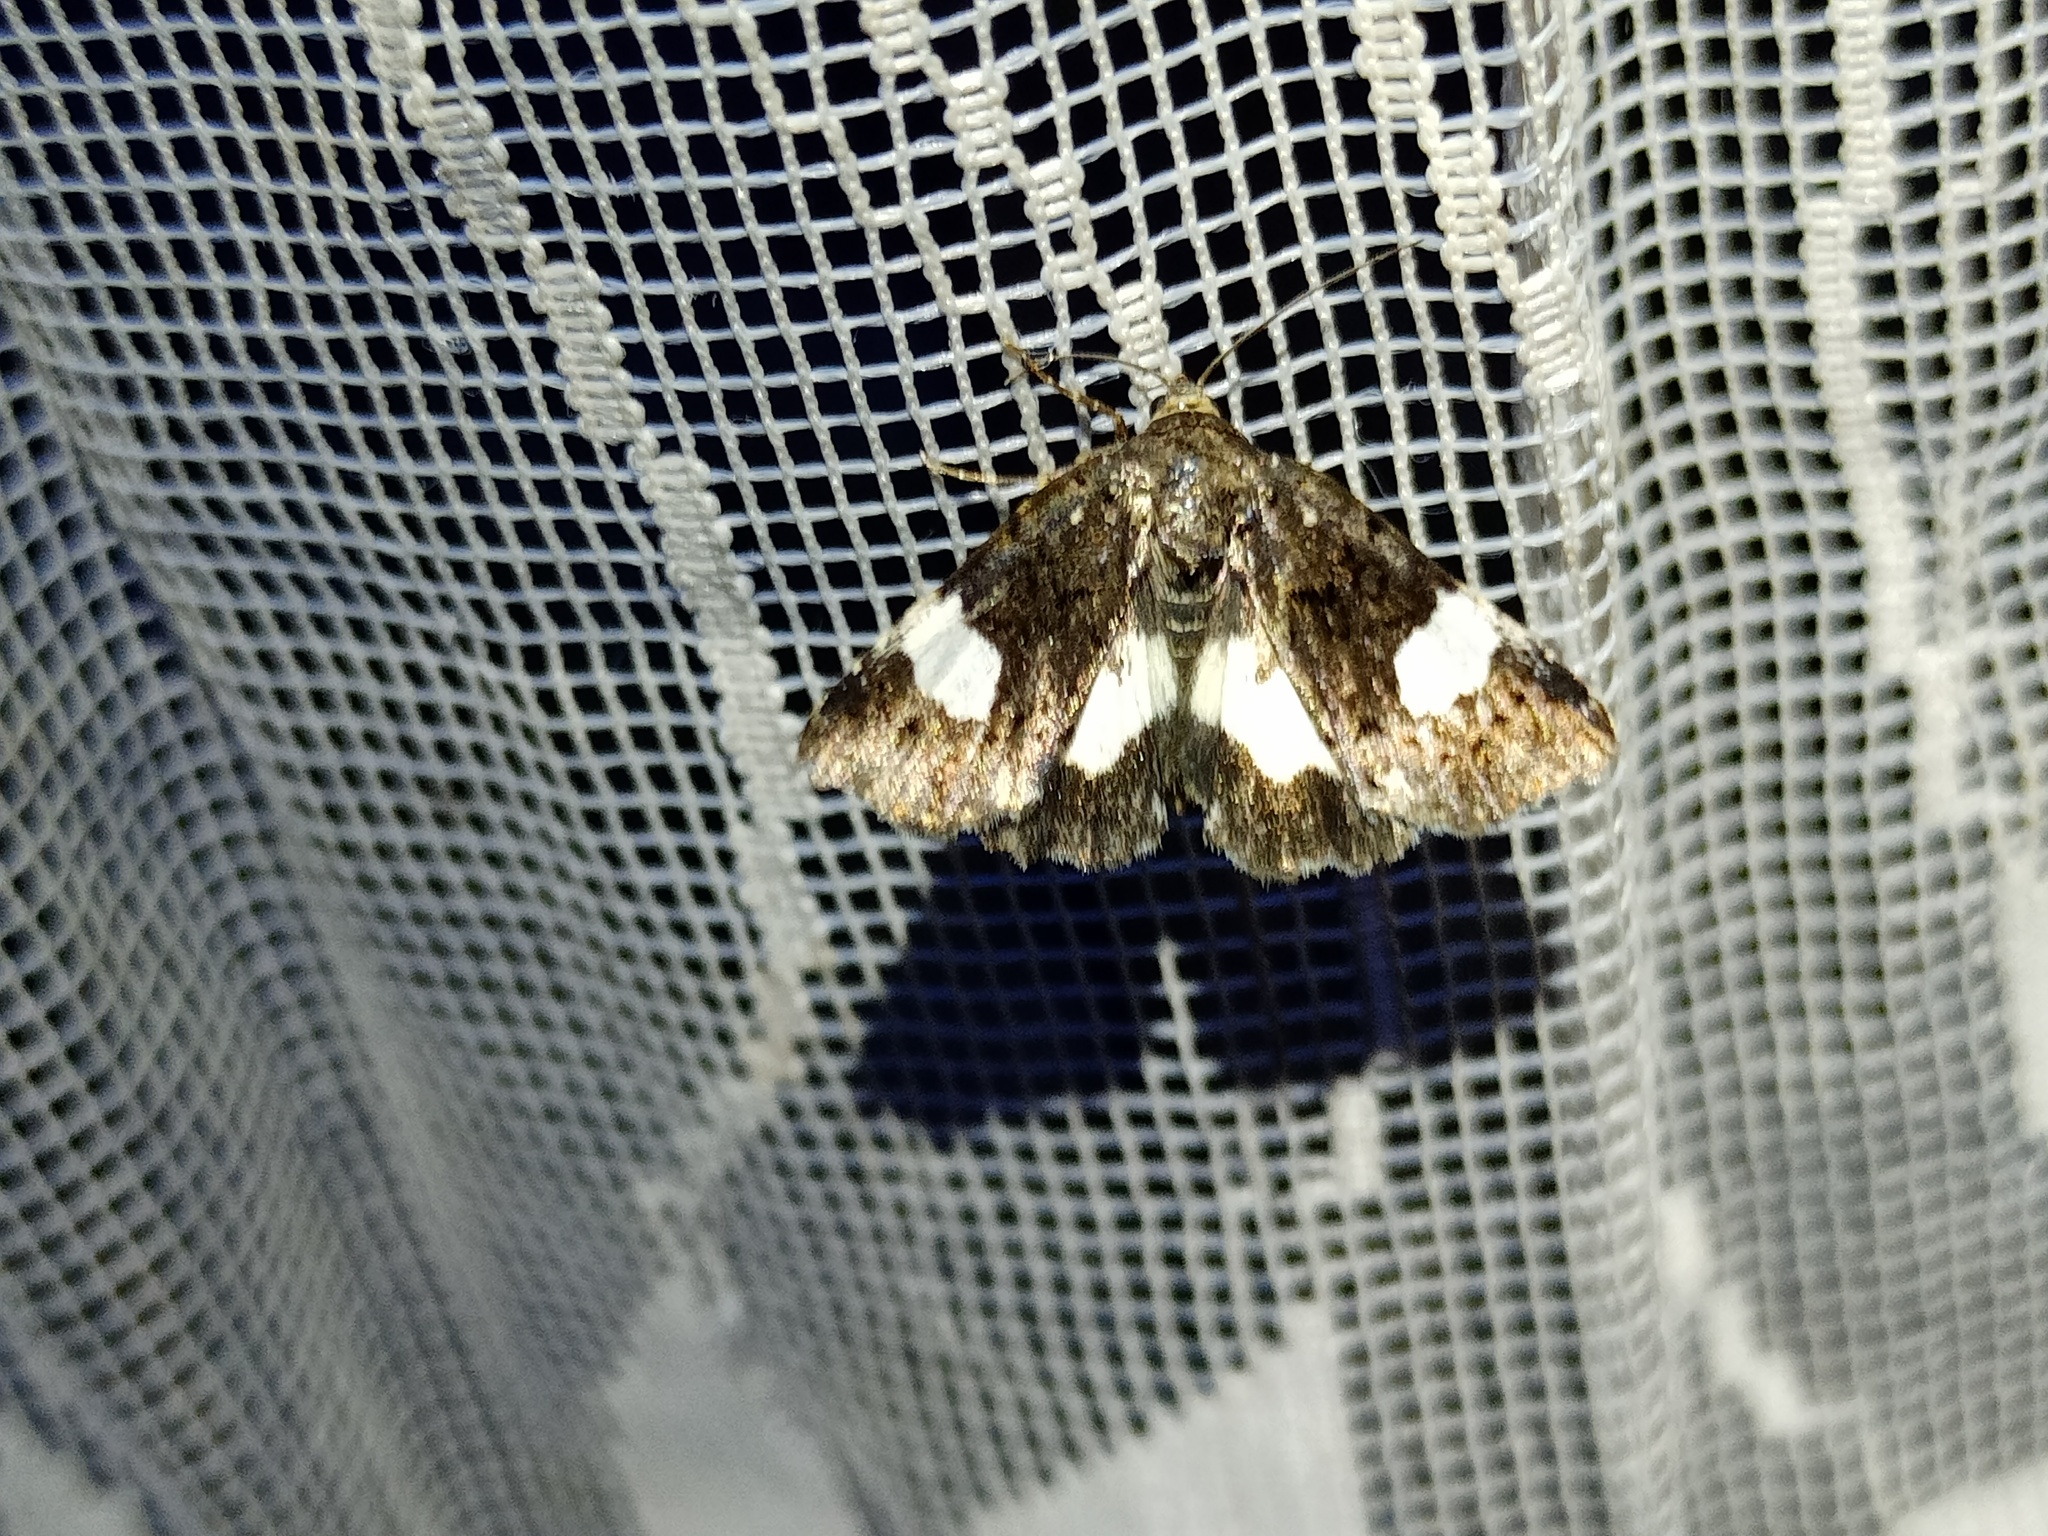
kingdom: Animalia
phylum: Arthropoda
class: Insecta
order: Lepidoptera
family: Erebidae
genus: Tyta
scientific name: Tyta luctuosa
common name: Four-spotted
